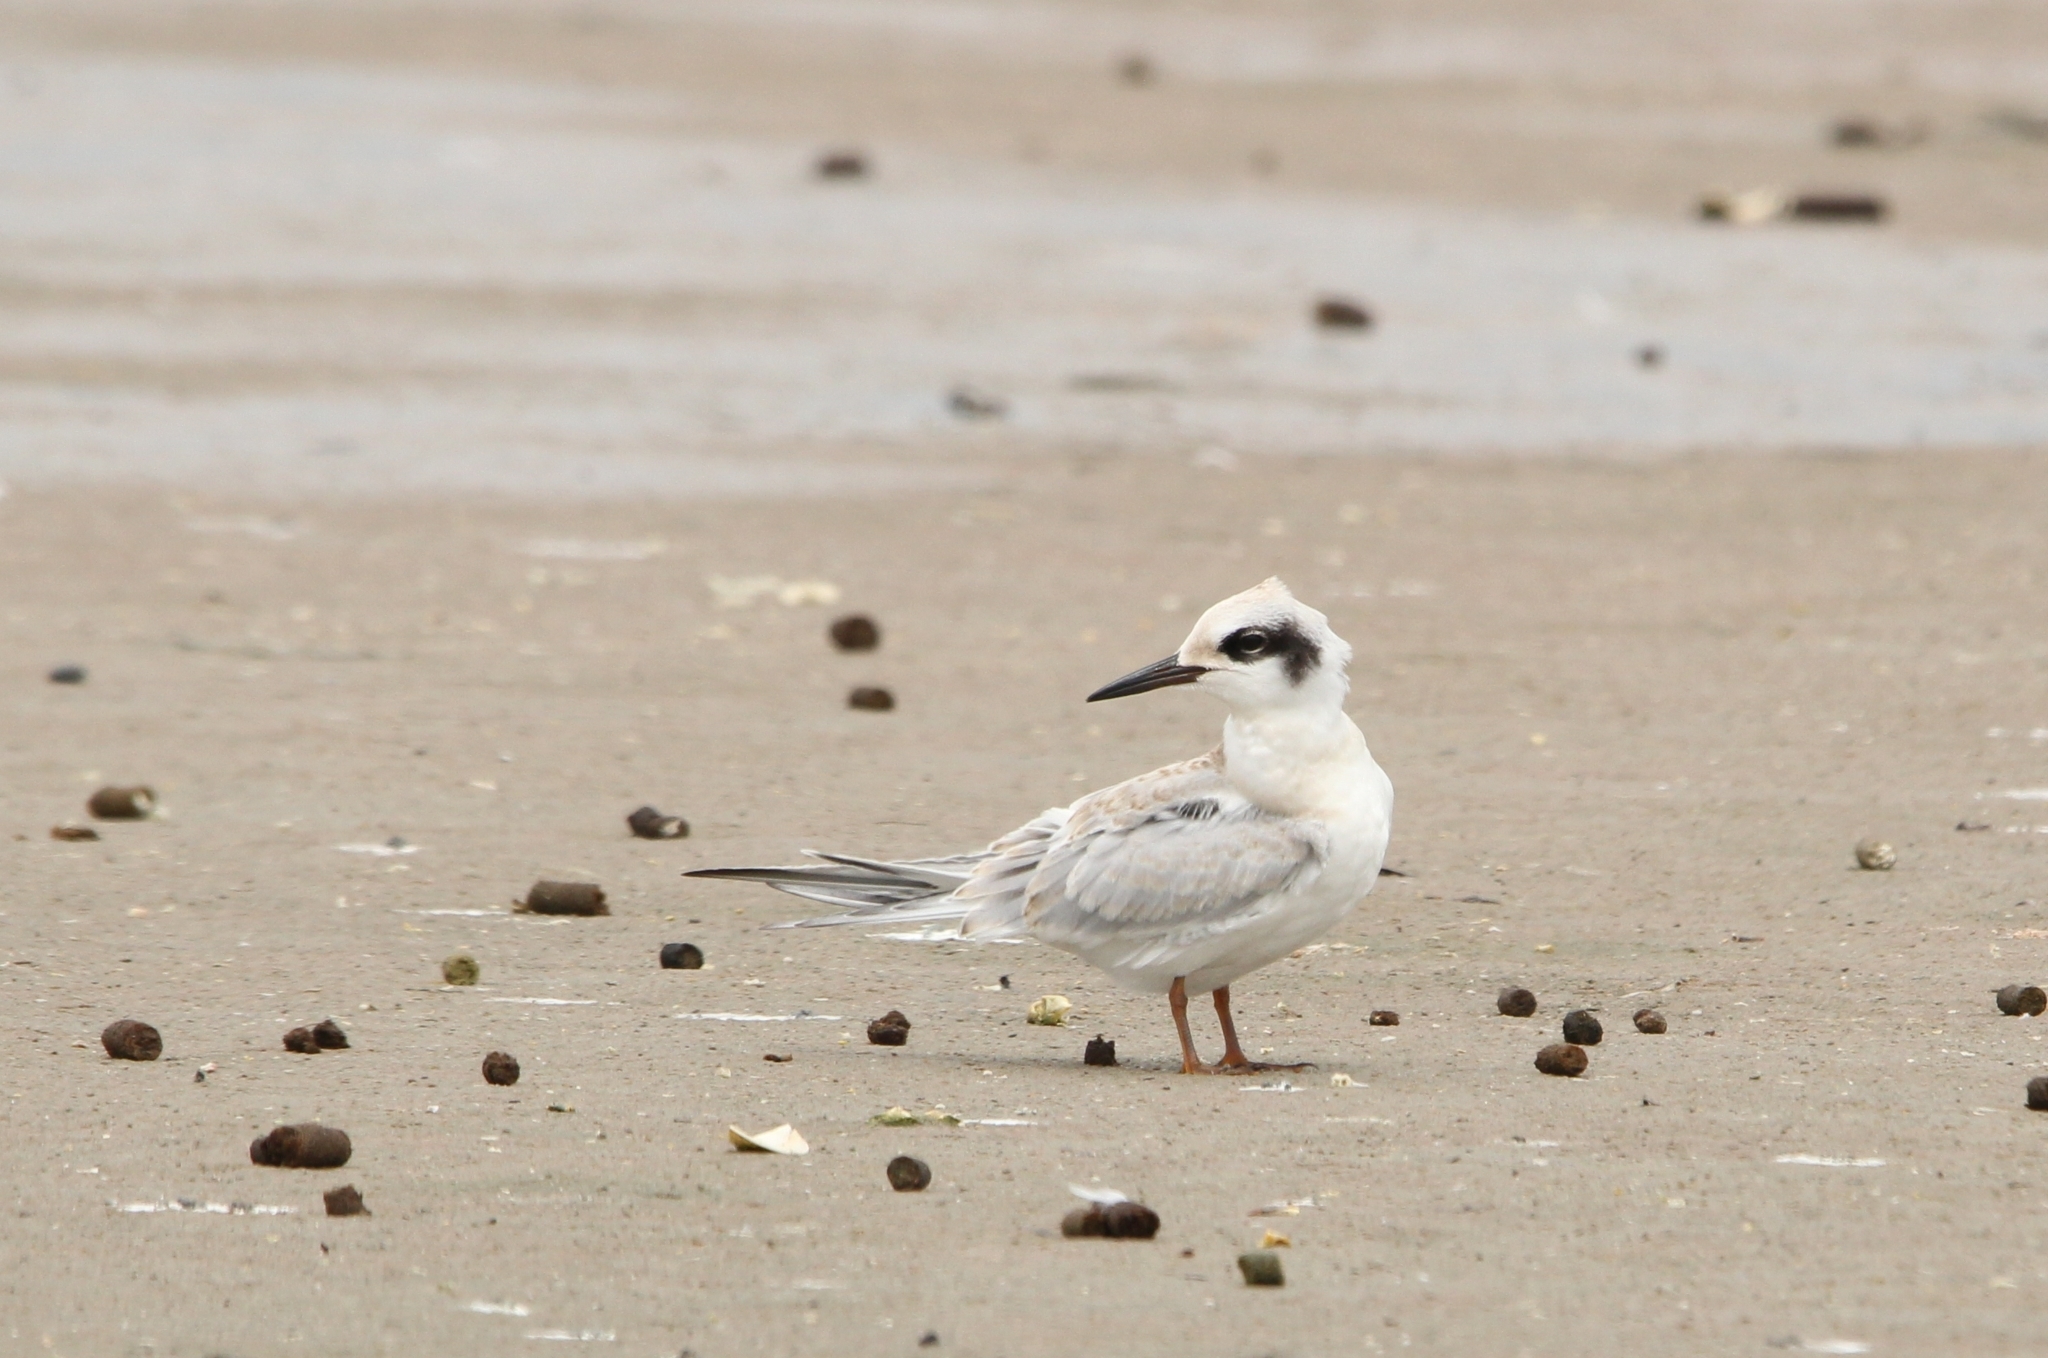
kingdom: Animalia
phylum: Chordata
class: Aves
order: Charadriiformes
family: Laridae
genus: Sterna
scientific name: Sterna forsteri
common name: Forster's tern
